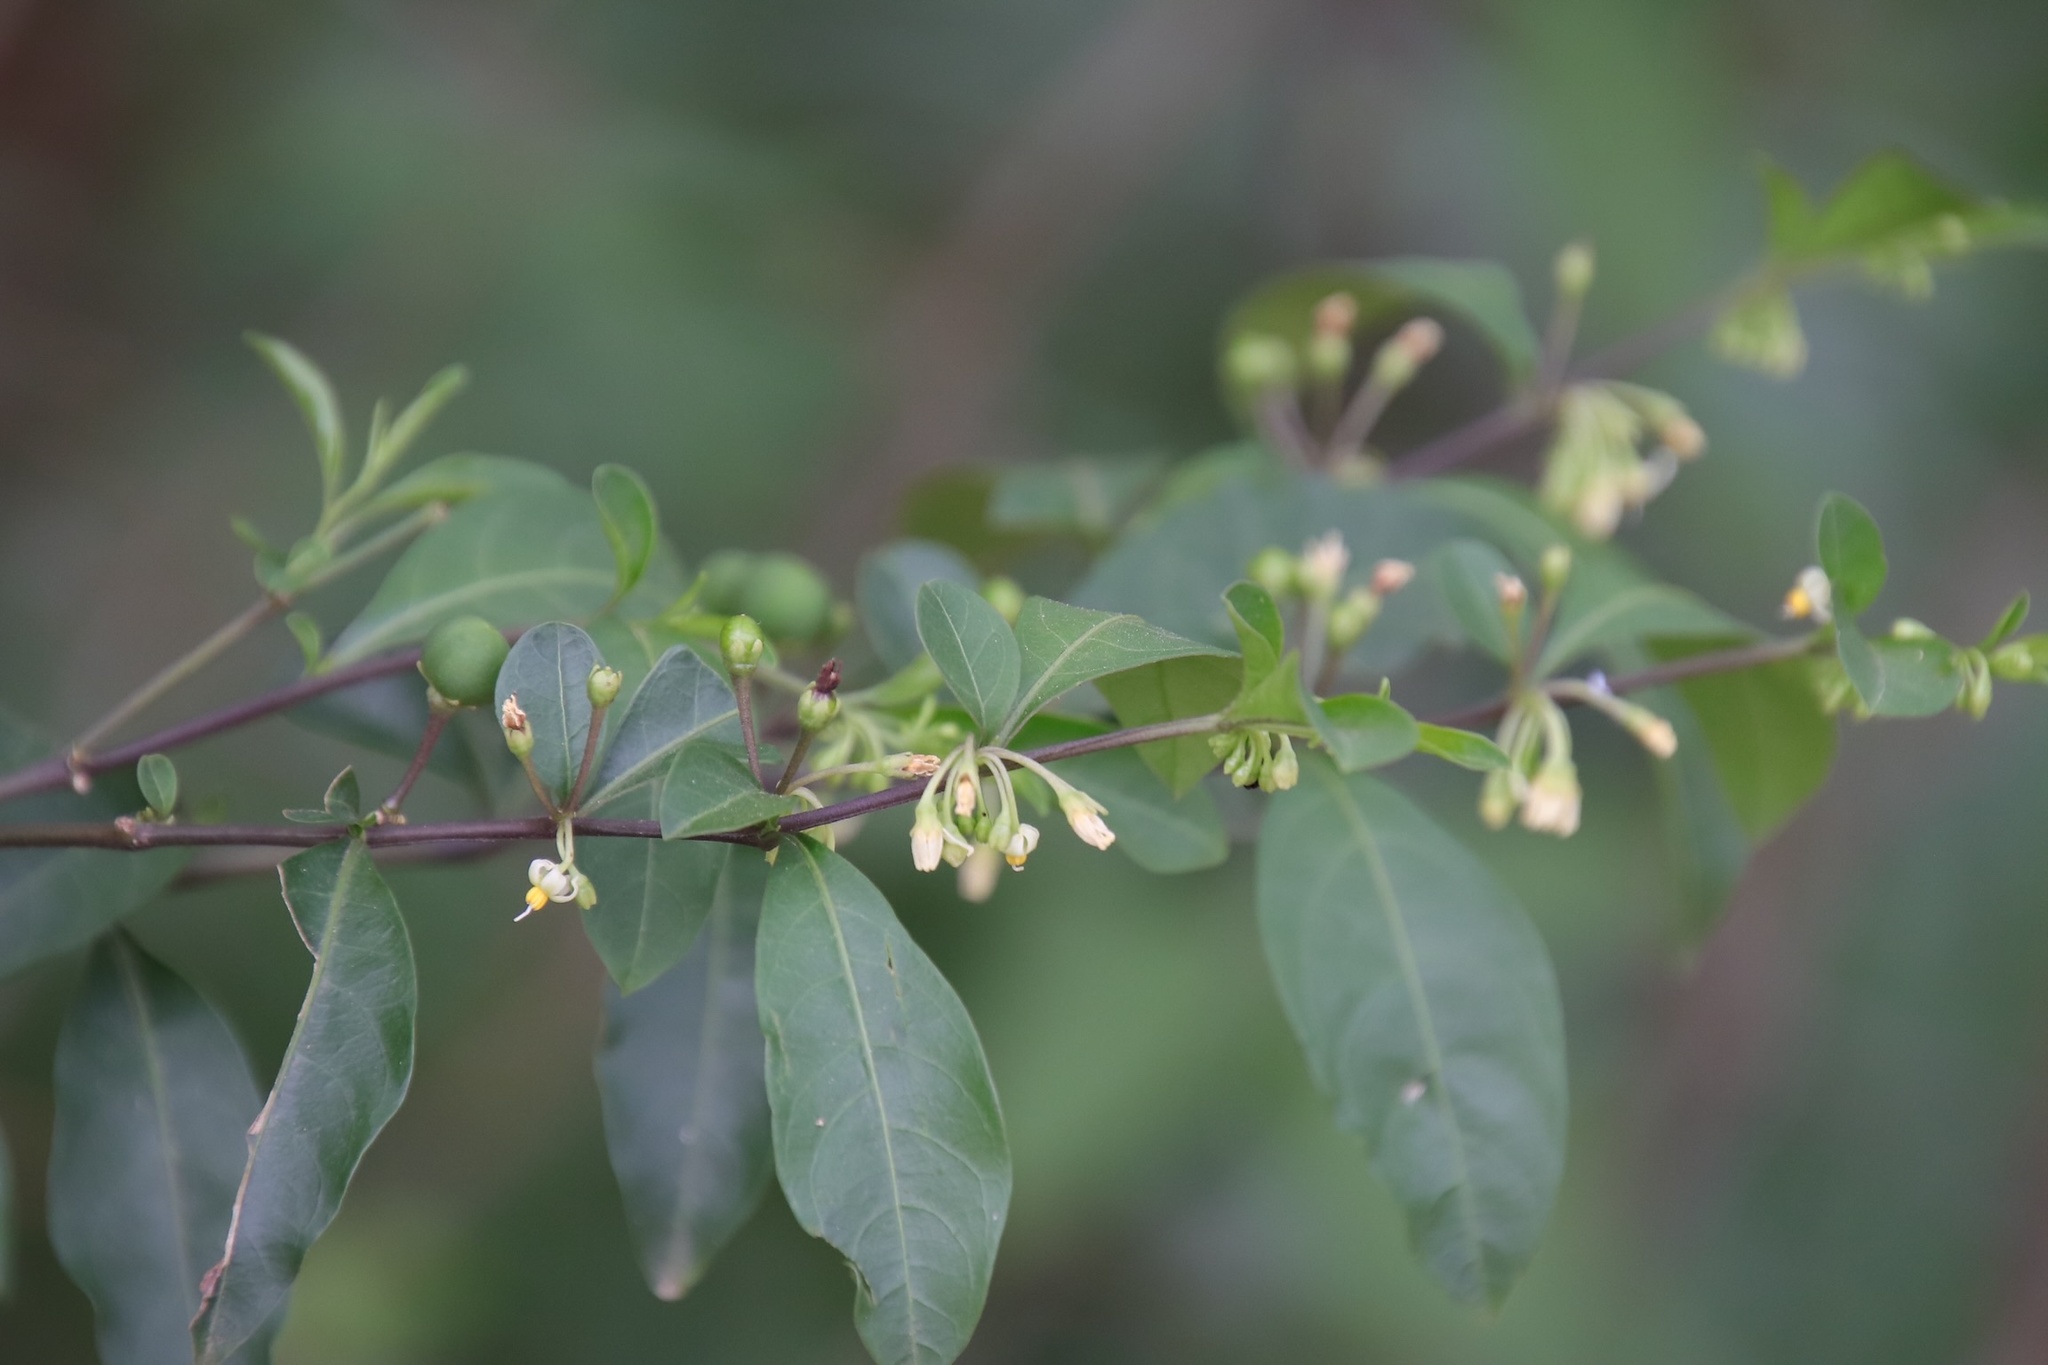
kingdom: Plantae
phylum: Tracheophyta
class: Magnoliopsida
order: Solanales
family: Solanaceae
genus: Solanum
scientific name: Solanum diphyllum
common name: Twoleaf nightshade
